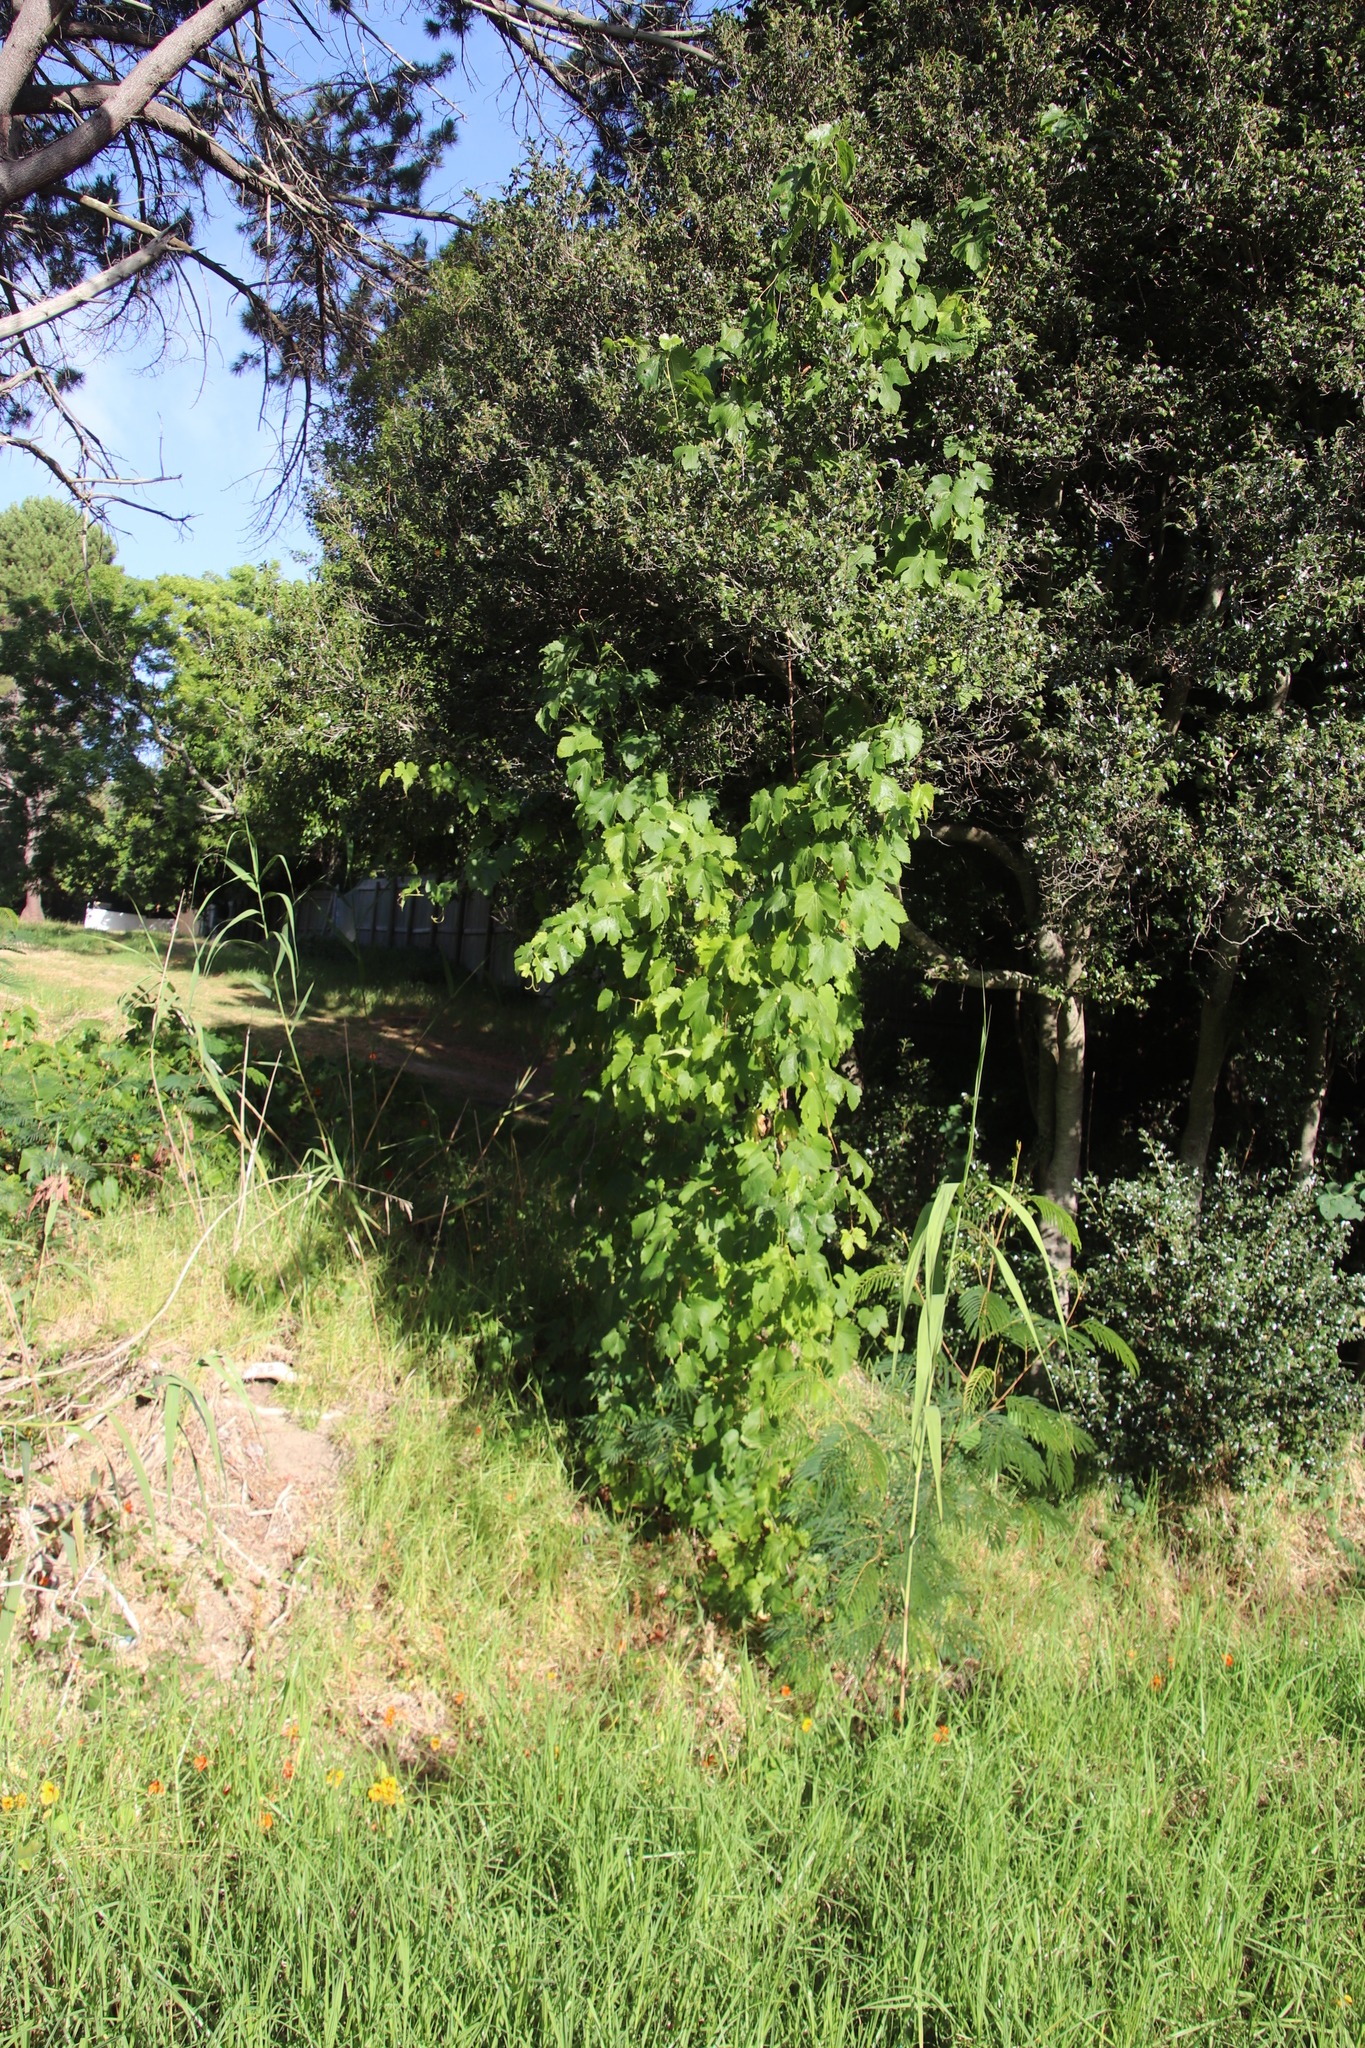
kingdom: Plantae
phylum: Tracheophyta
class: Magnoliopsida
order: Vitales
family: Vitaceae
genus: Vitis
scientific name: Vitis vinifera
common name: Grape-vine
